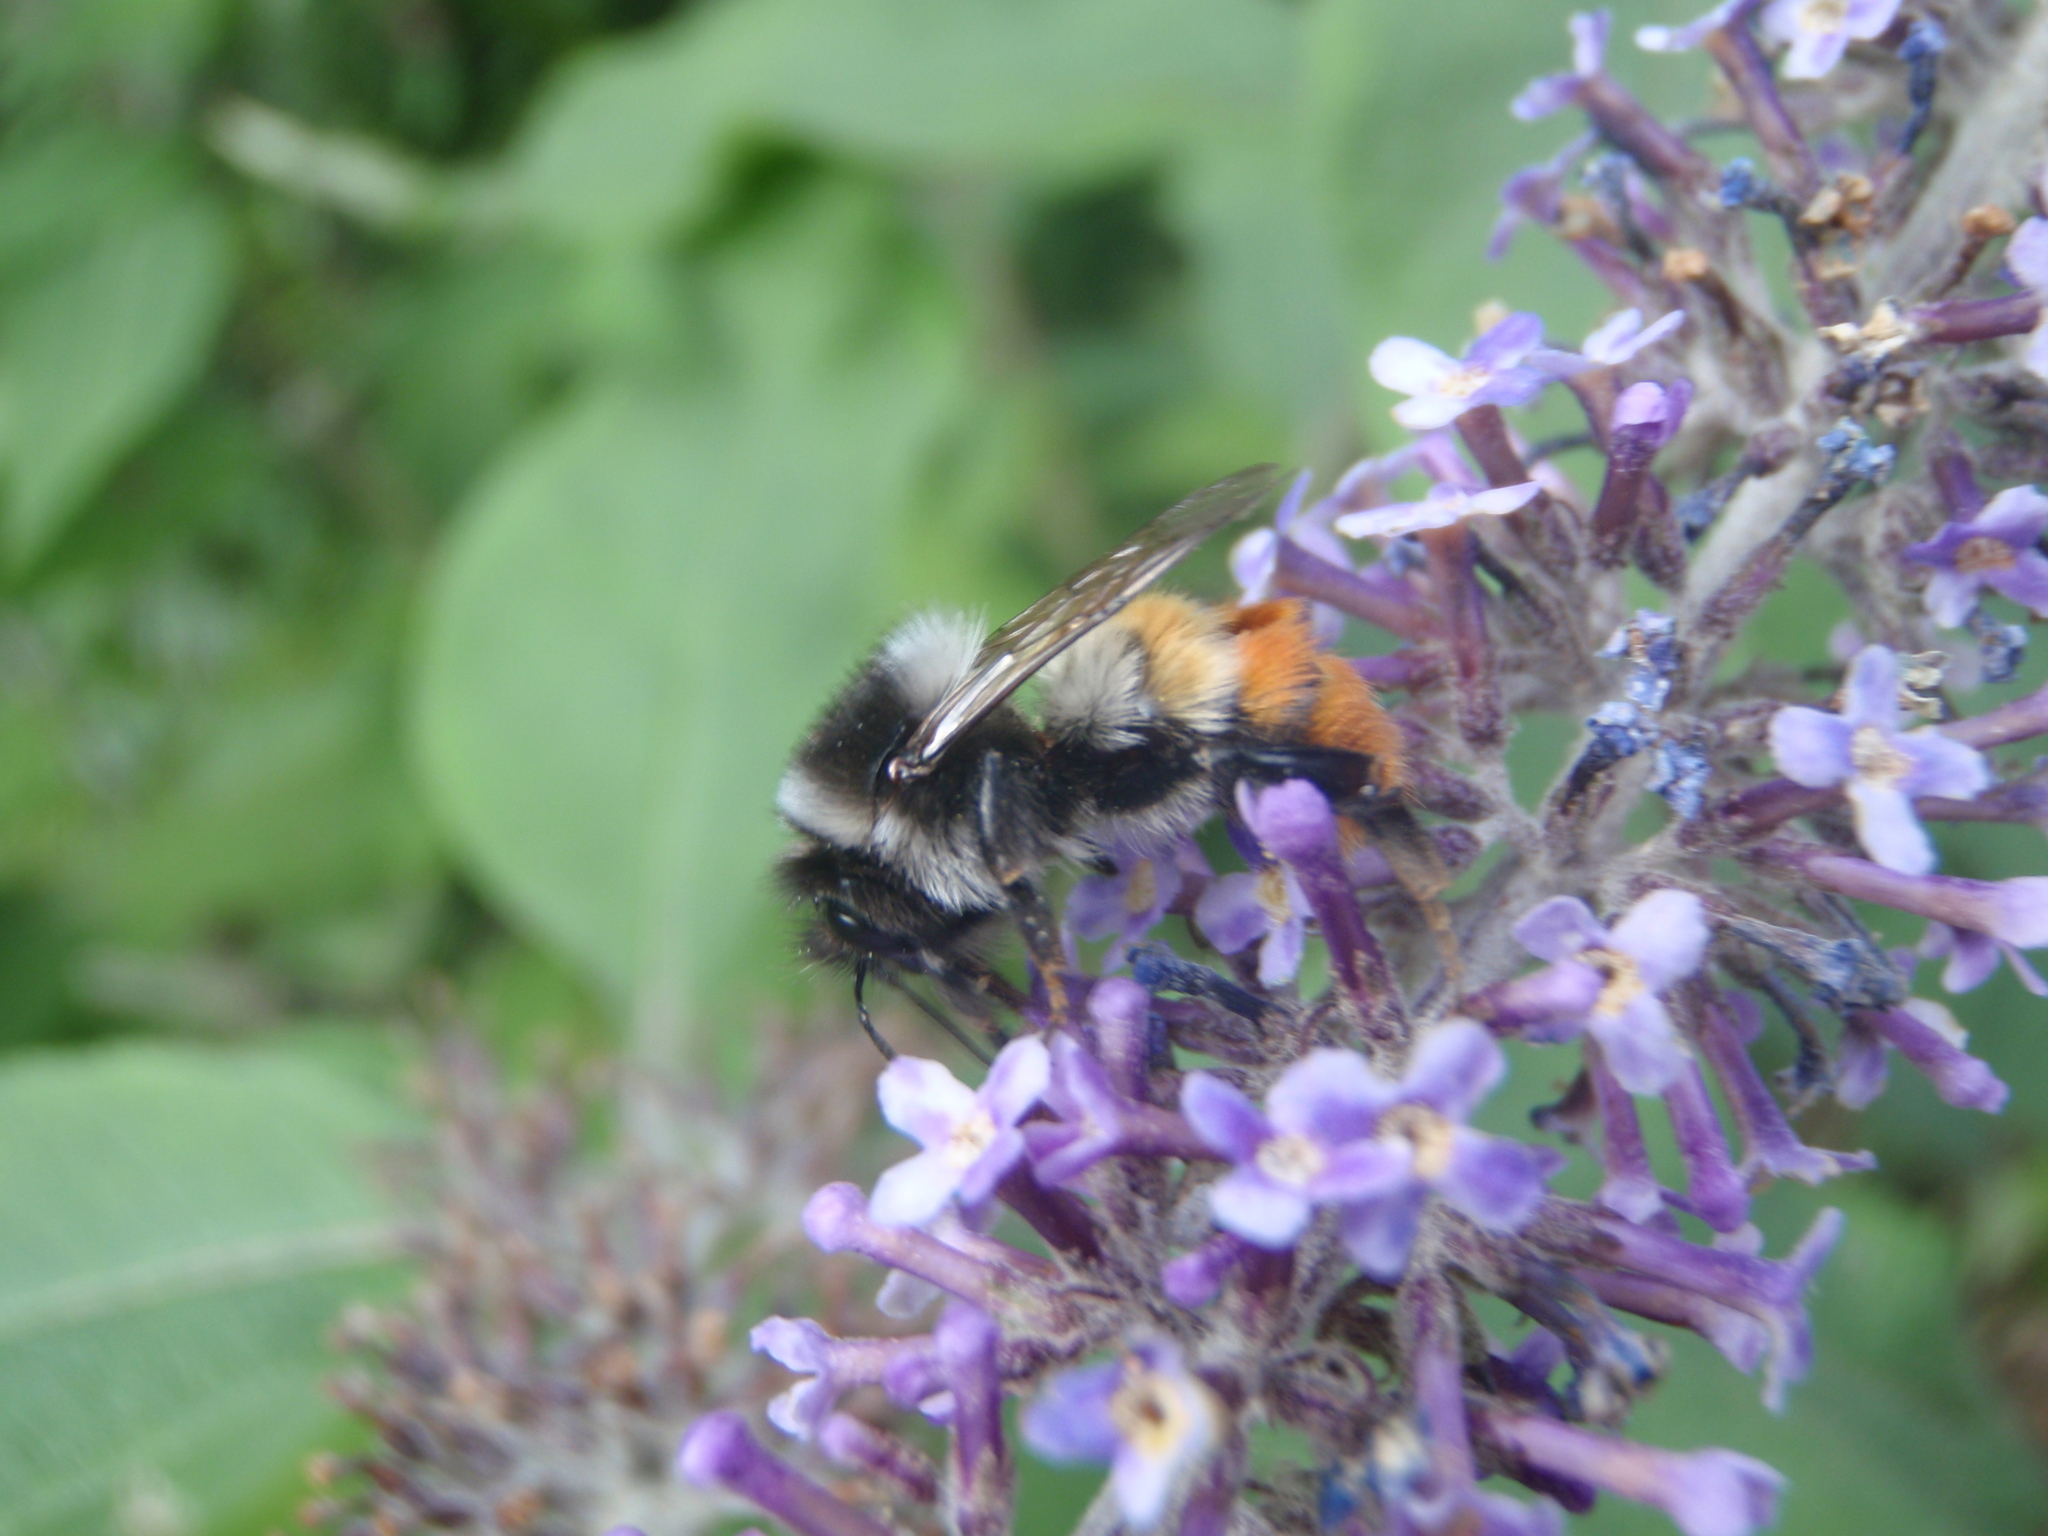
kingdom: Animalia
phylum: Arthropoda
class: Insecta
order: Hymenoptera
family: Apidae
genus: Bombus
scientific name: Bombus pyrosoma
